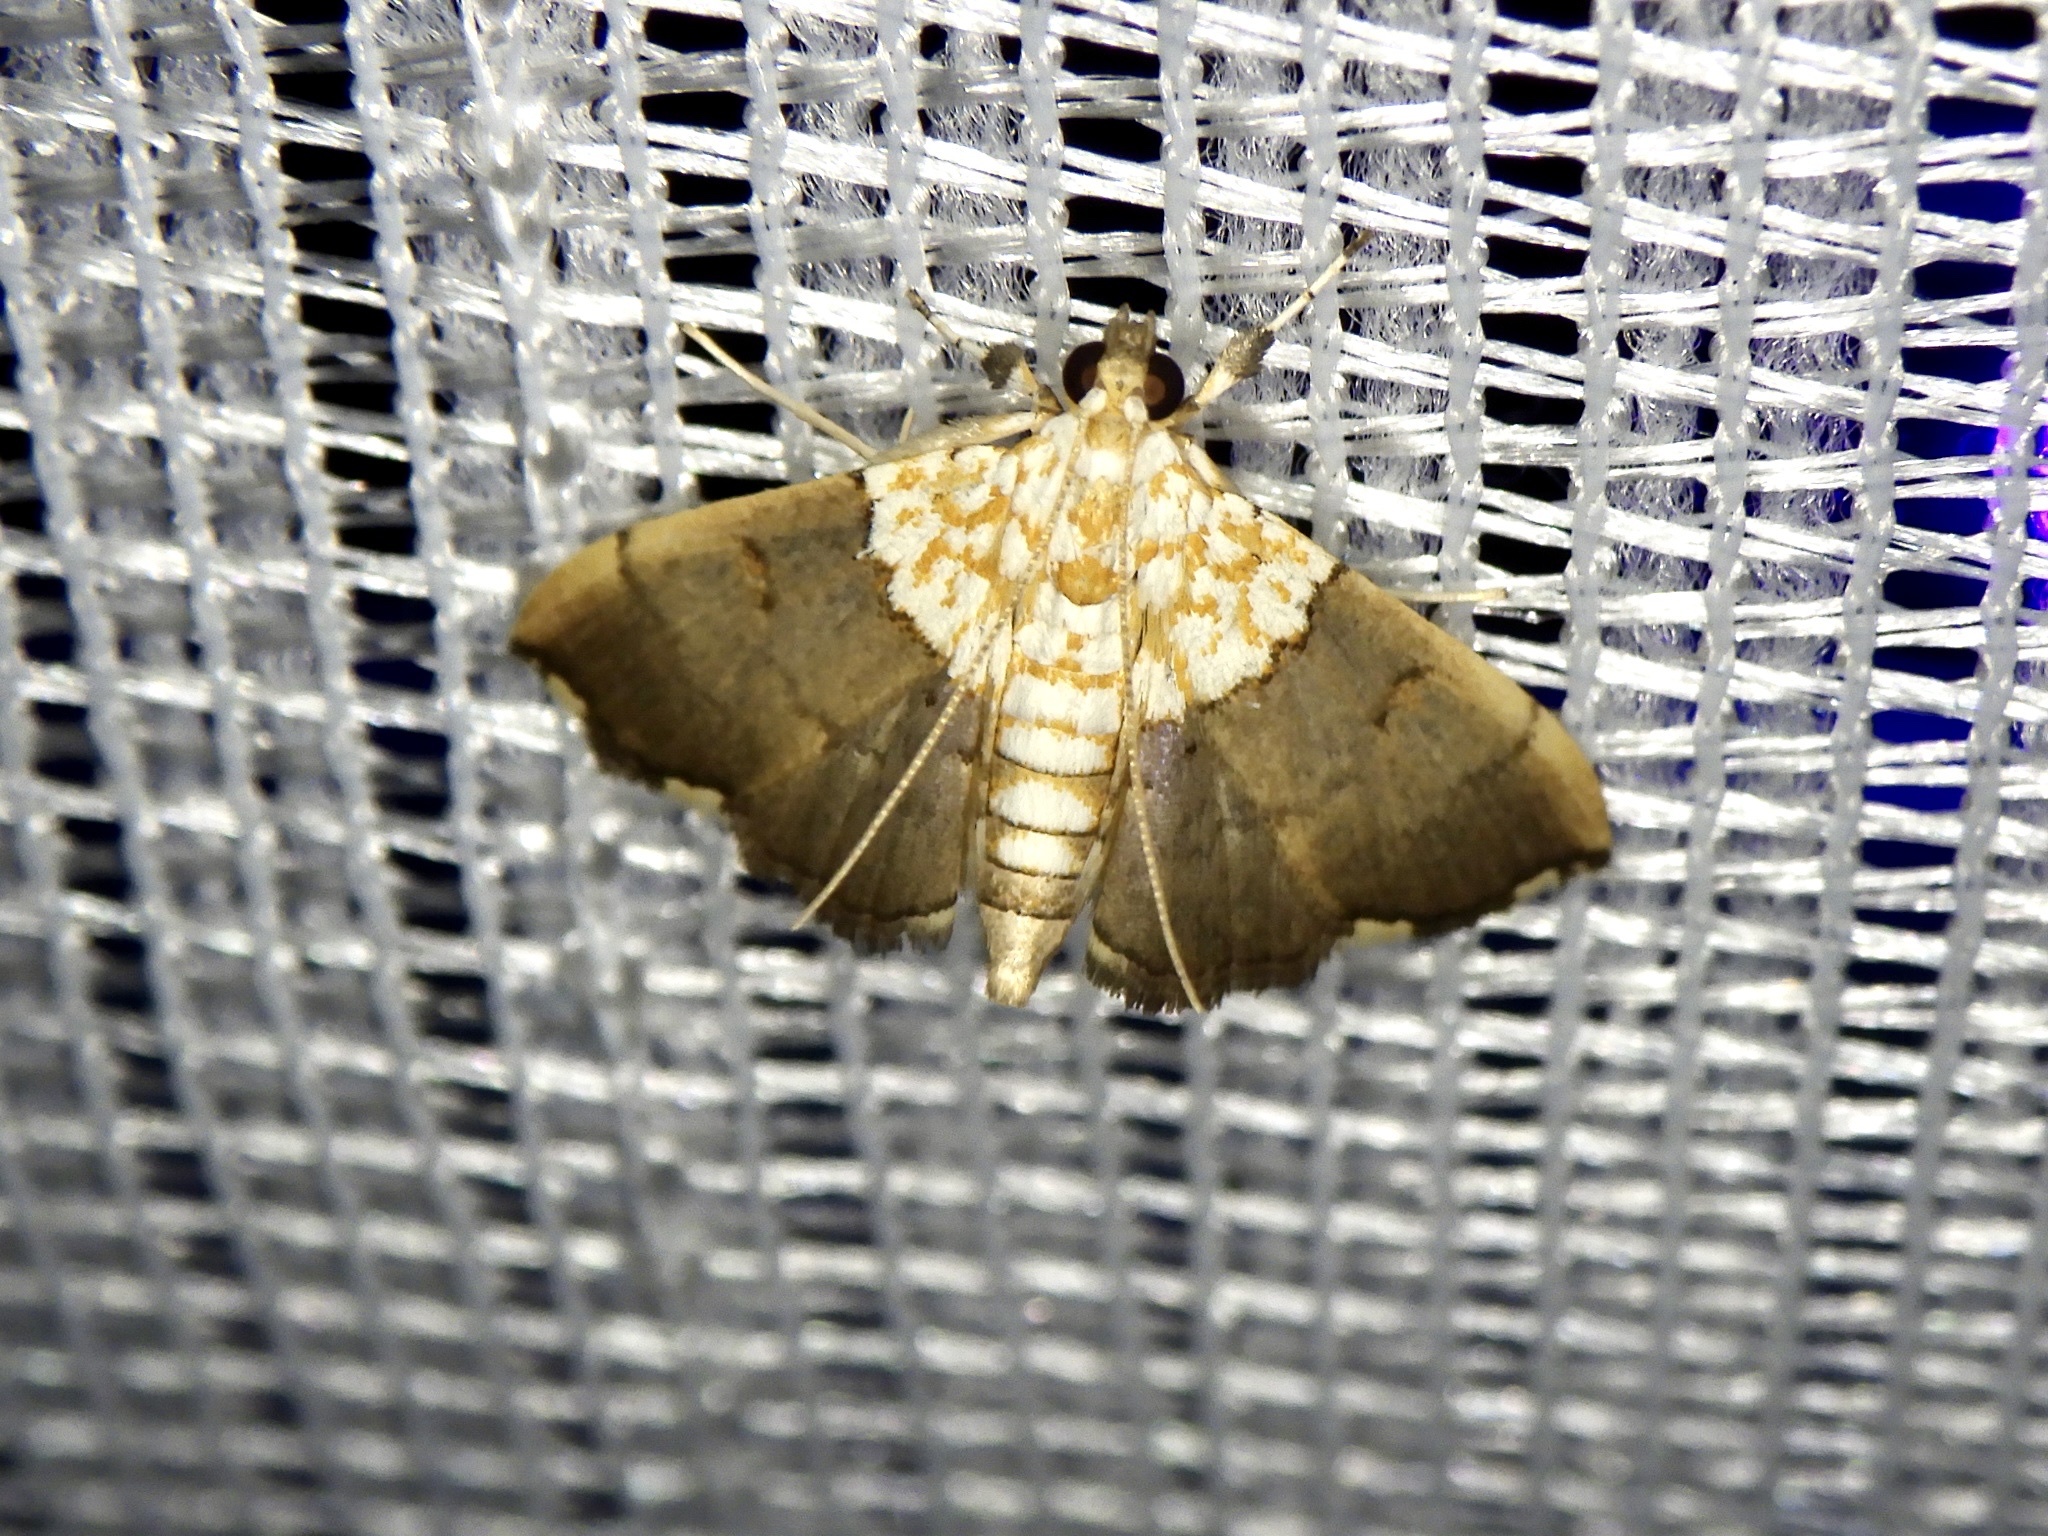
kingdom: Animalia
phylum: Arthropoda
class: Insecta
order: Lepidoptera
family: Crambidae
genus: Agrotera
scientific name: Agrotera nemoralis
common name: Beautiful pearl
